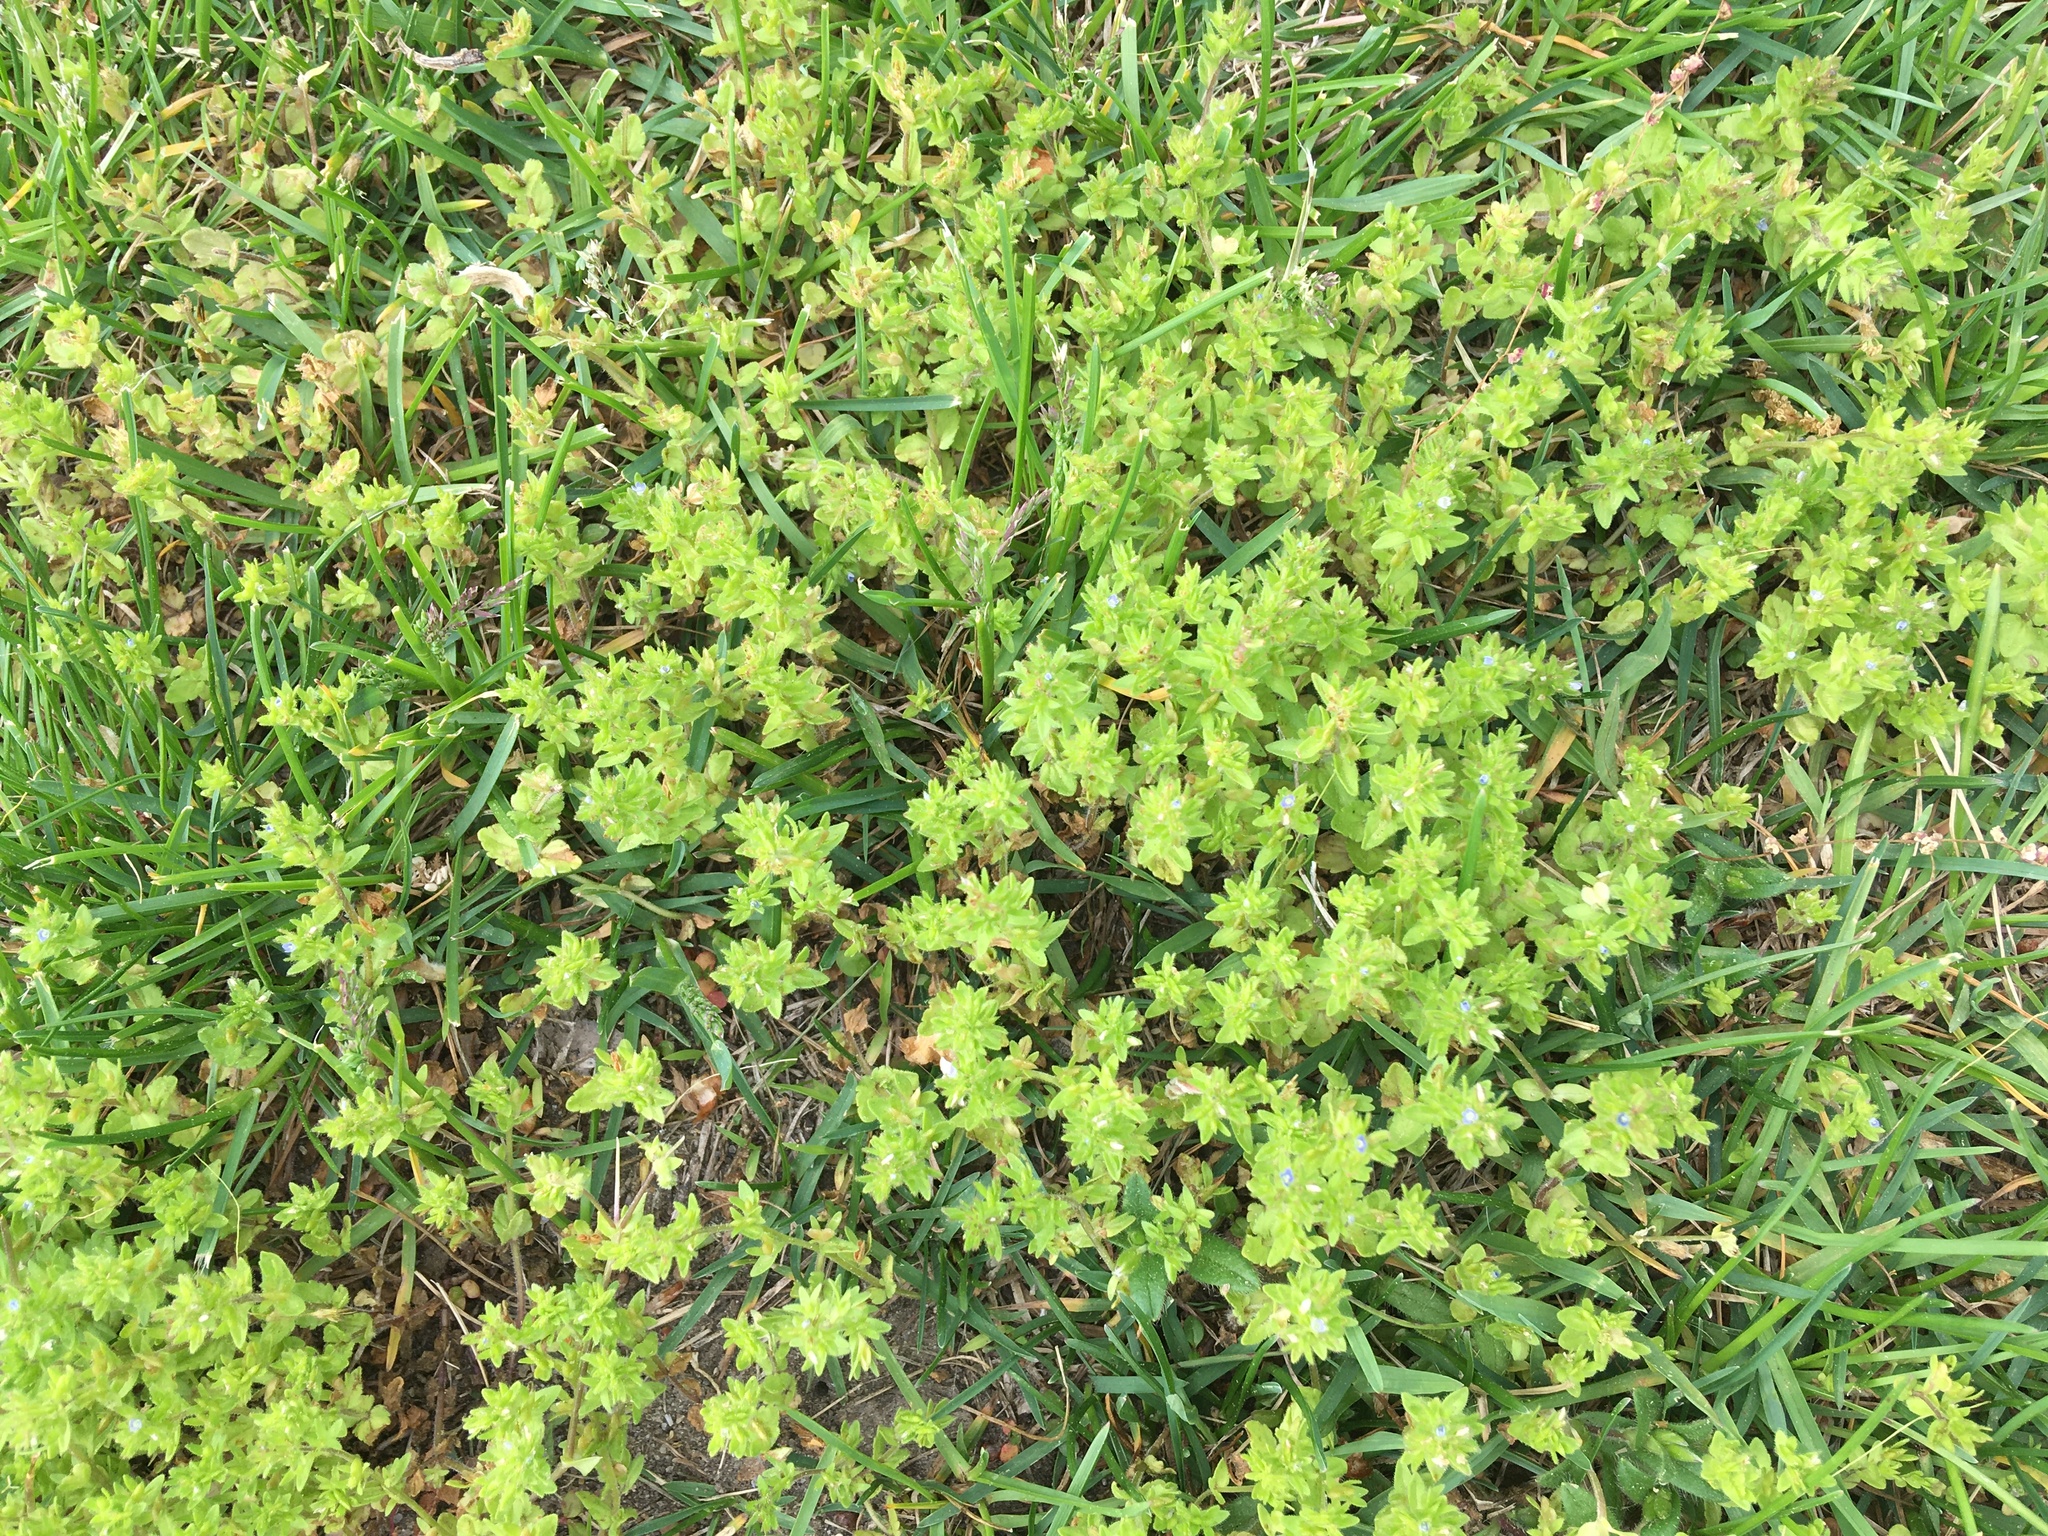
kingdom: Plantae
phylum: Tracheophyta
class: Magnoliopsida
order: Lamiales
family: Plantaginaceae
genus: Veronica
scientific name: Veronica arvensis
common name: Corn speedwell
